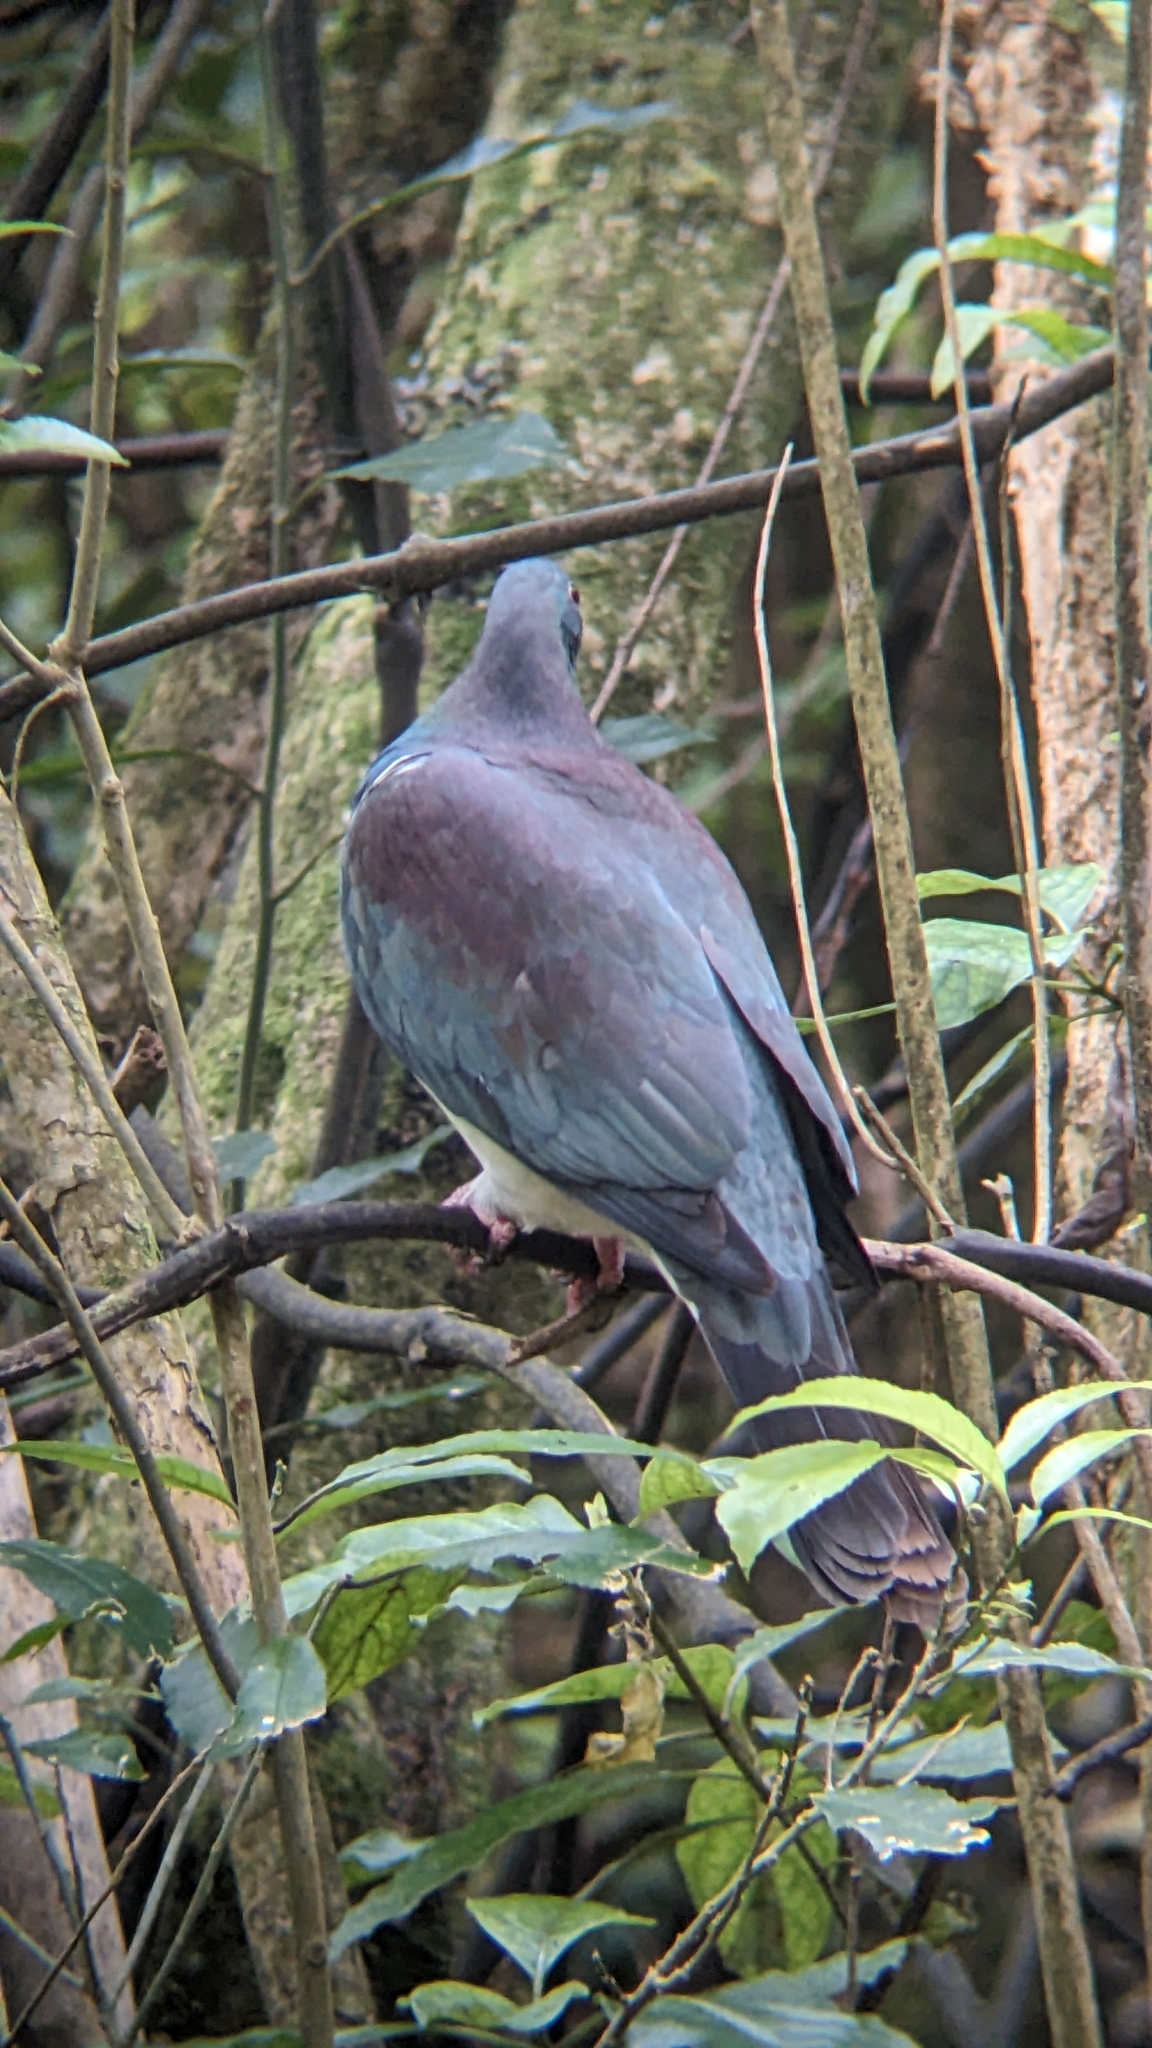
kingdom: Animalia
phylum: Chordata
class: Aves
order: Columbiformes
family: Columbidae
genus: Hemiphaga
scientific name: Hemiphaga novaeseelandiae
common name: New zealand pigeon
